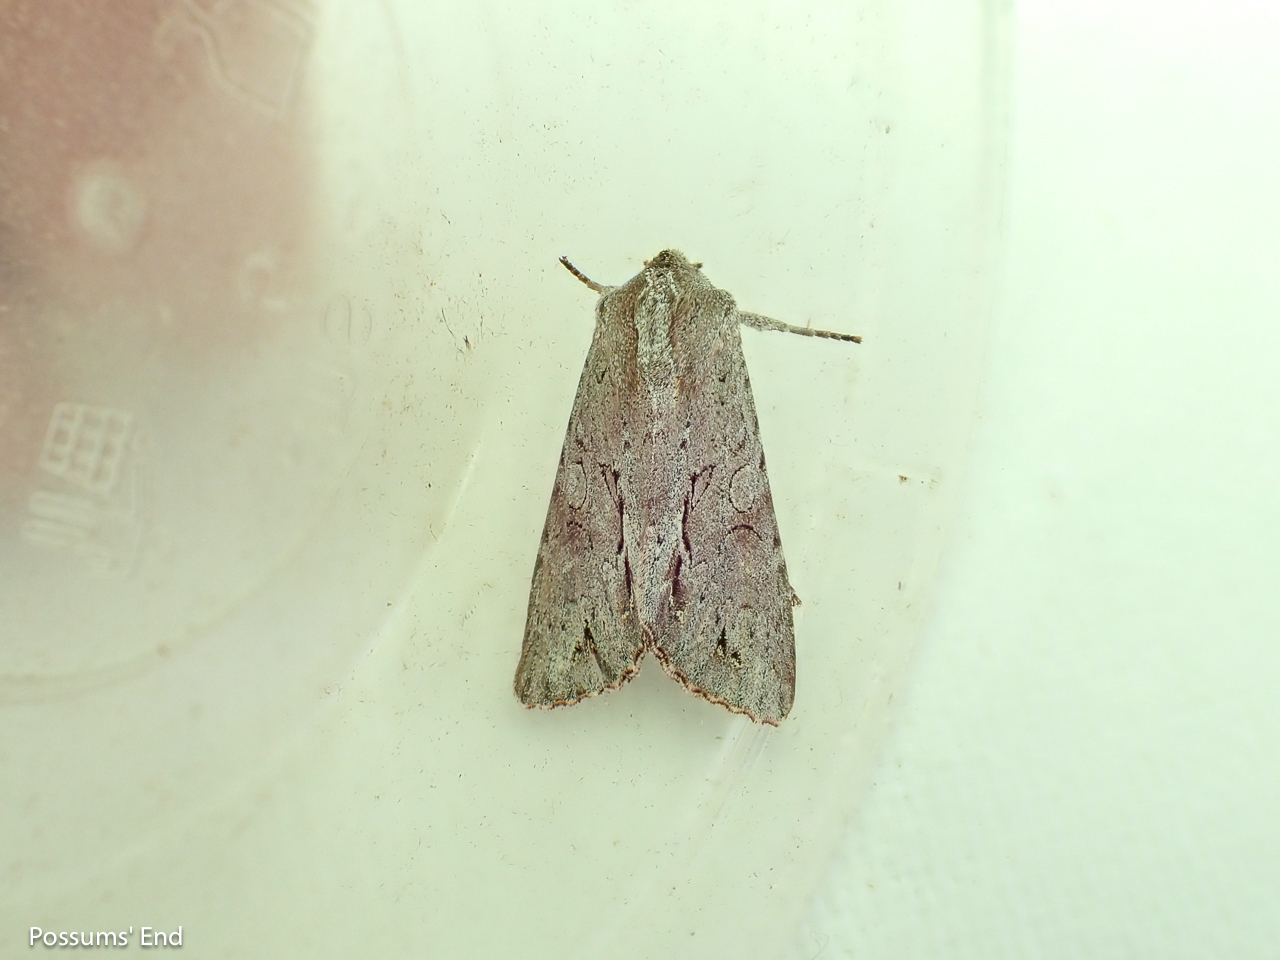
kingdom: Animalia
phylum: Arthropoda
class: Insecta
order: Lepidoptera
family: Noctuidae
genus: Ichneutica
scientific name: Ichneutica
